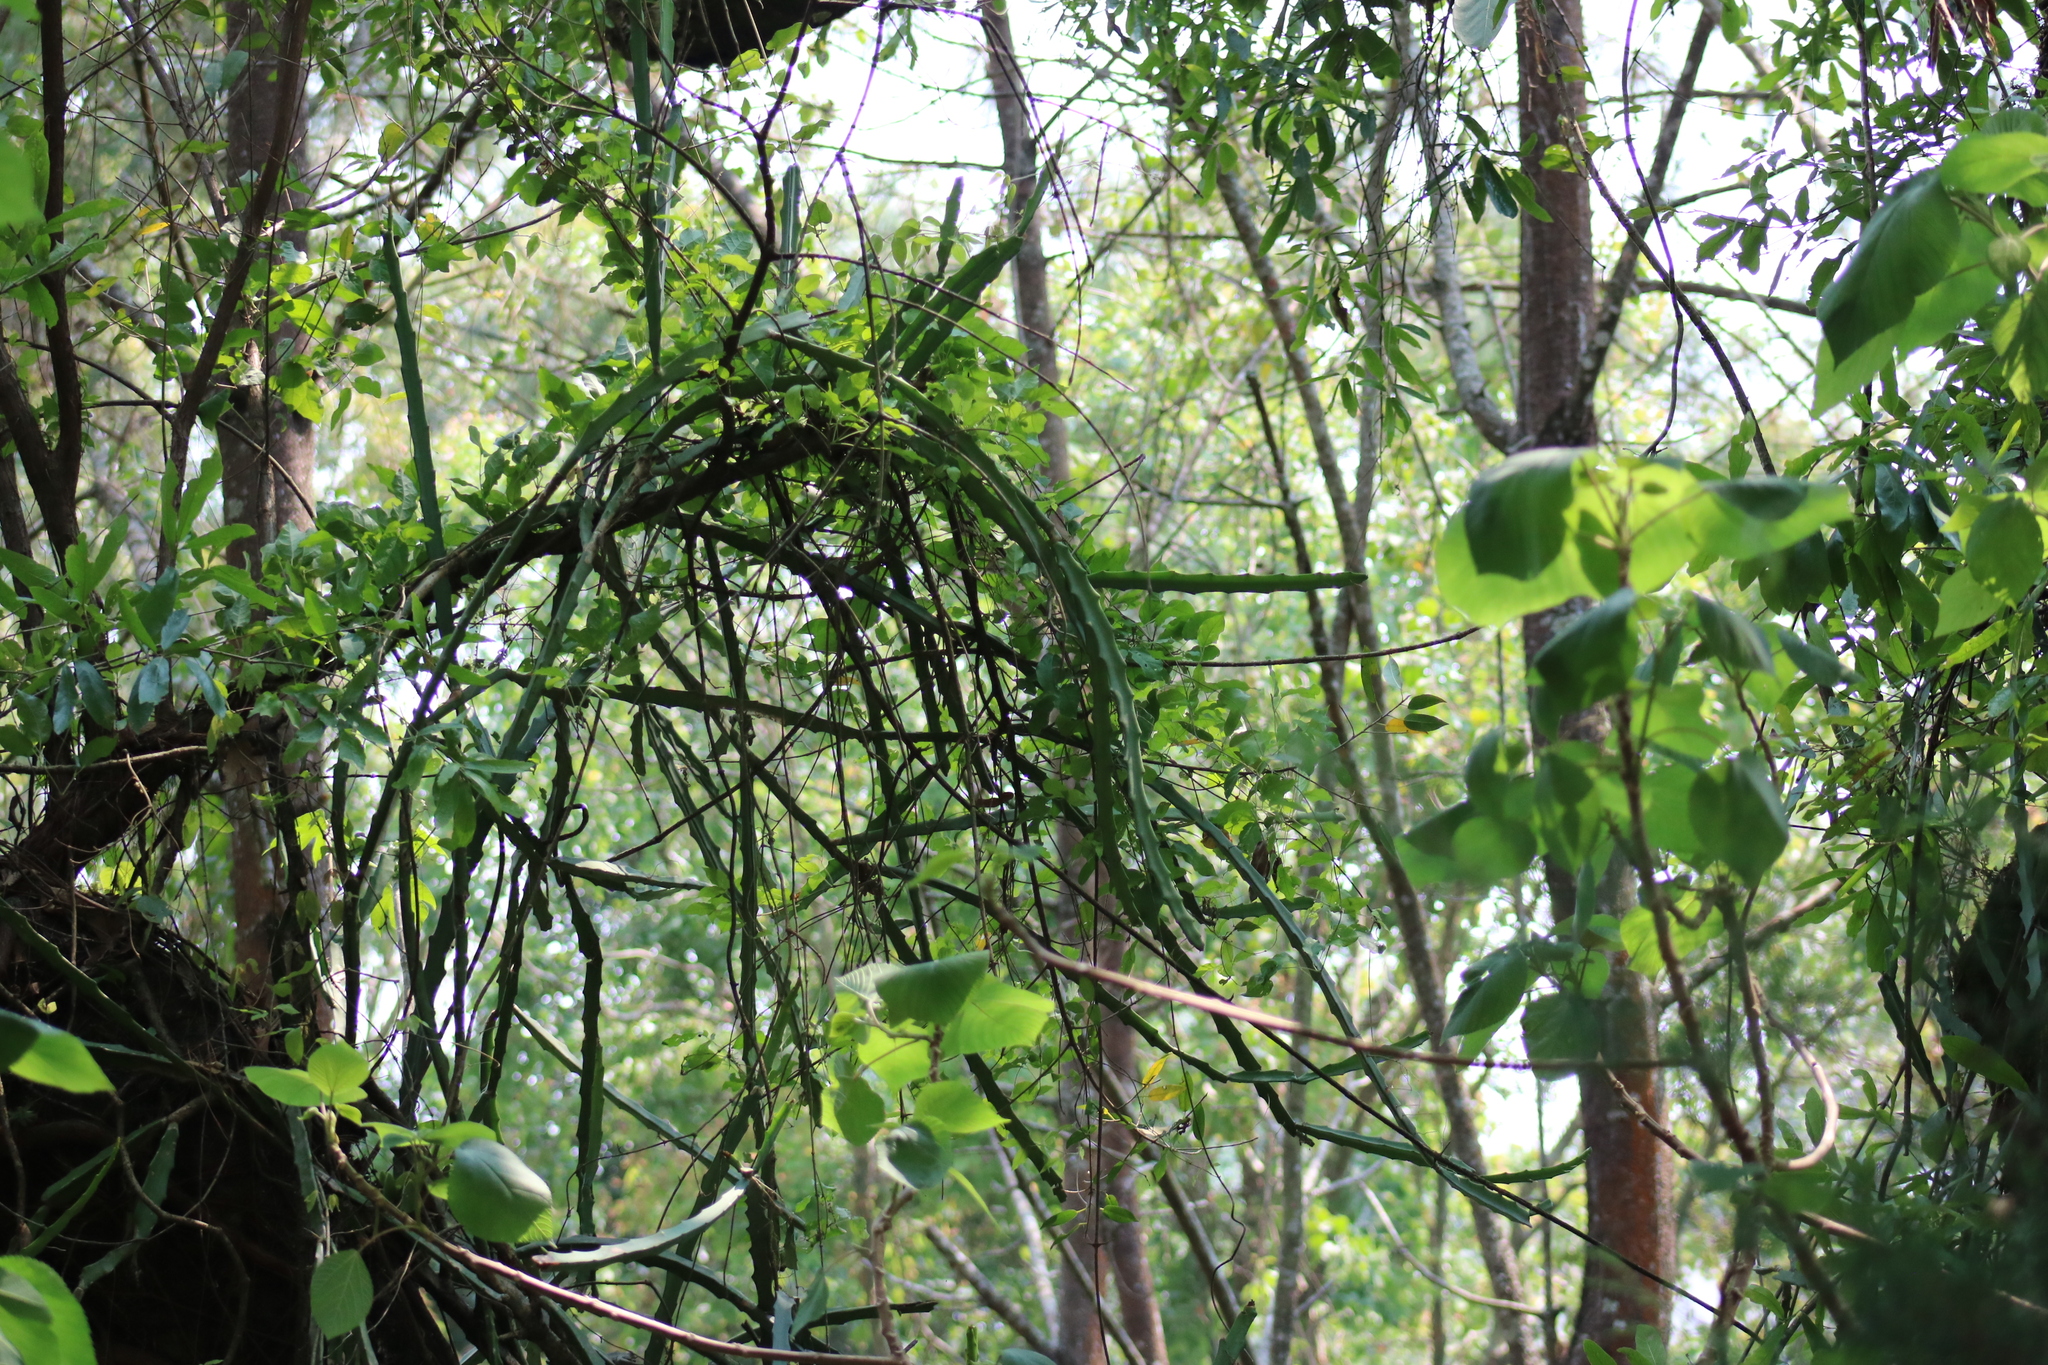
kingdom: Plantae
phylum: Tracheophyta
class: Magnoliopsida
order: Caryophyllales
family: Cactaceae
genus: Selenicereus
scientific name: Selenicereus triangularis
